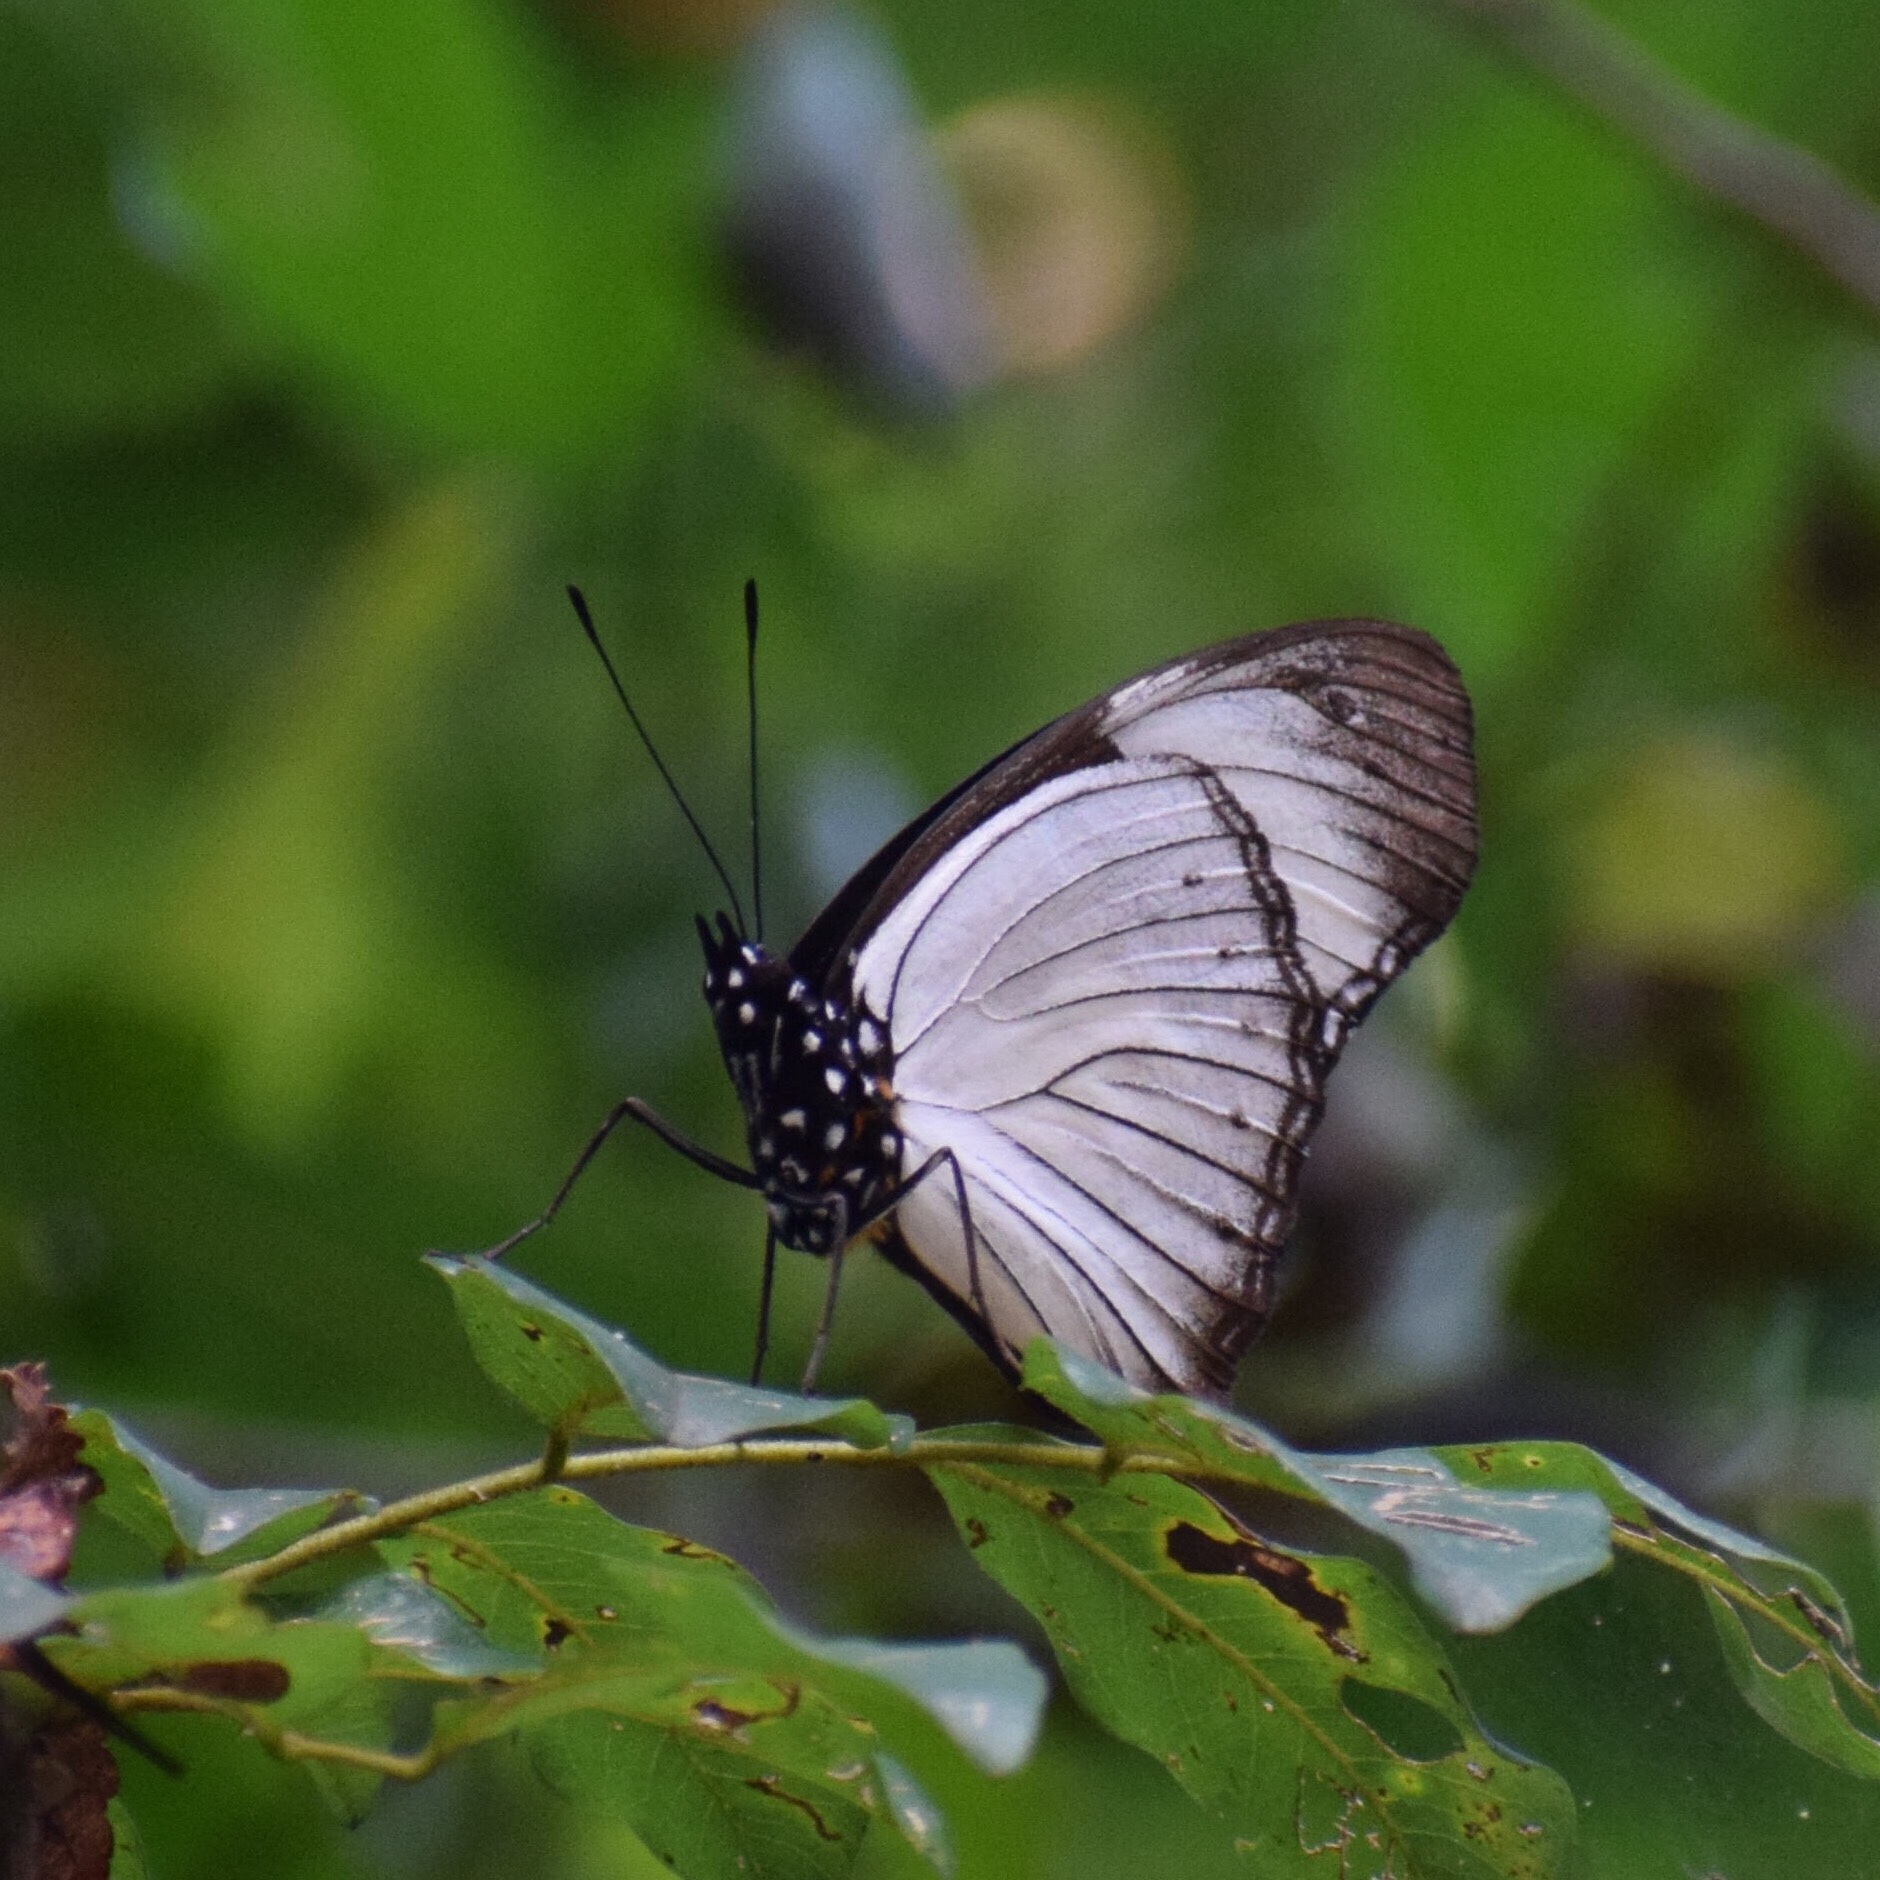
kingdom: Animalia
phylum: Arthropoda
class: Insecta
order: Lepidoptera
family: Nymphalidae
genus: Hypolimnas
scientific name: Hypolimnas dubius
